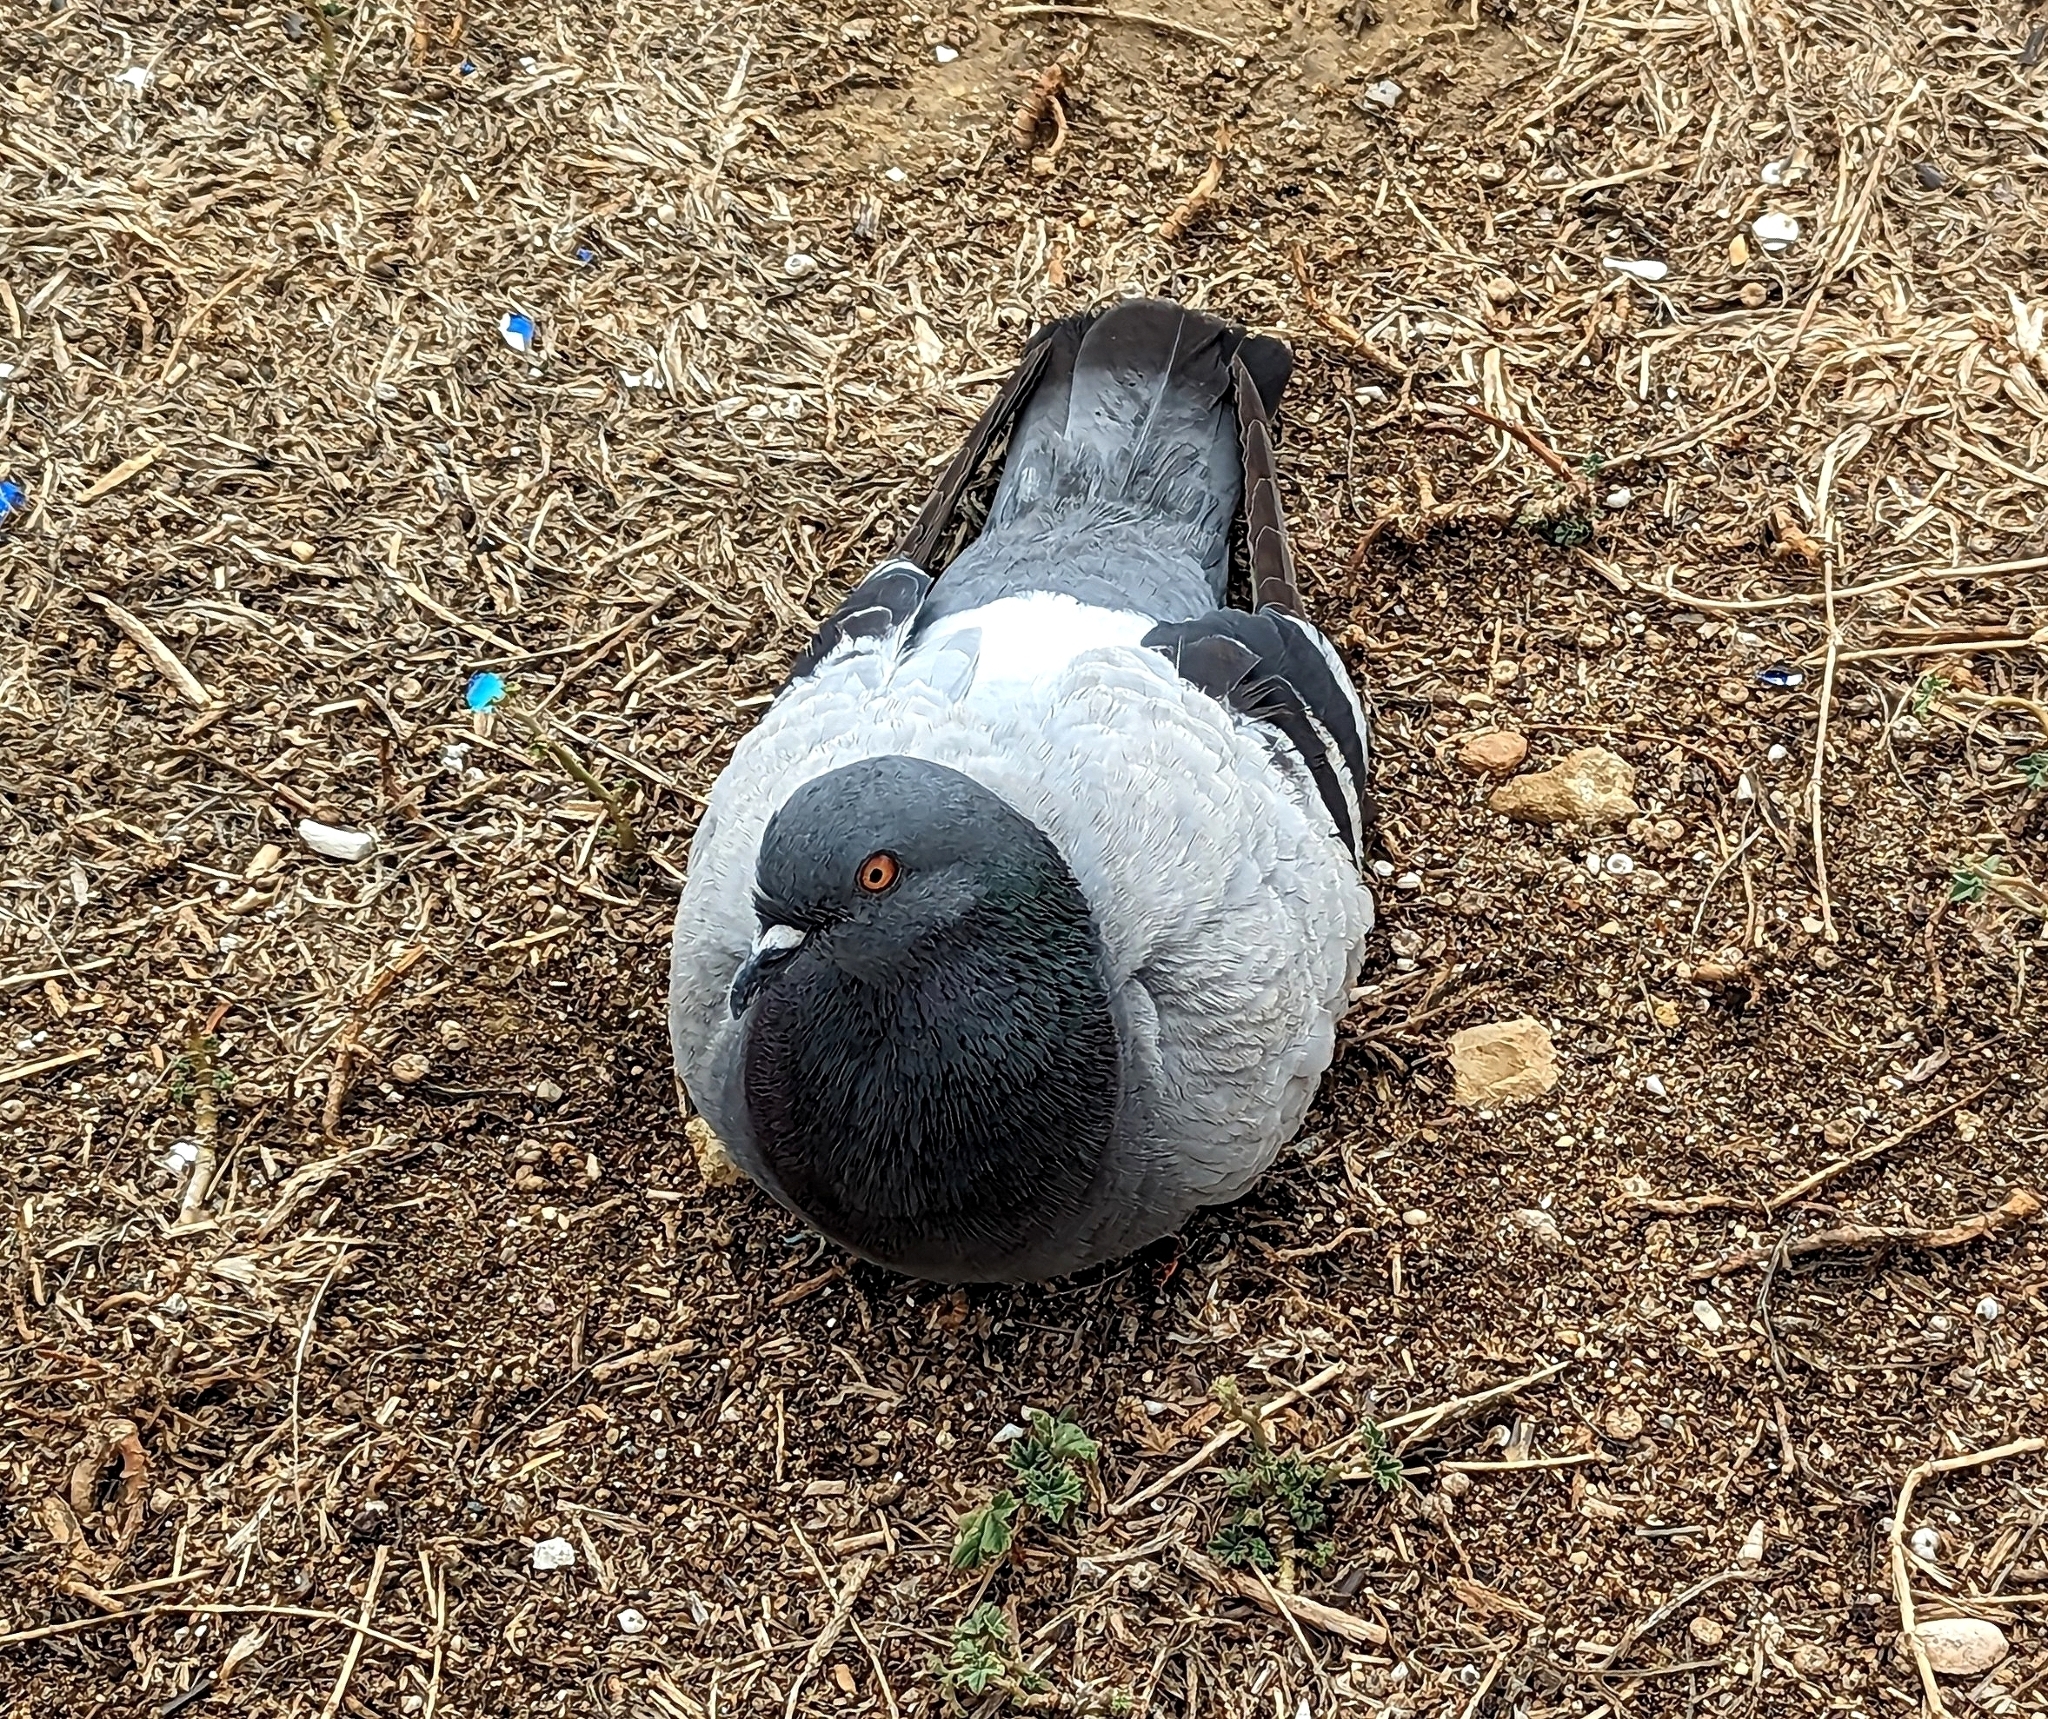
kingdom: Animalia
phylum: Chordata
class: Aves
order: Columbiformes
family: Columbidae
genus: Columba
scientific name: Columba livia
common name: Rock pigeon
